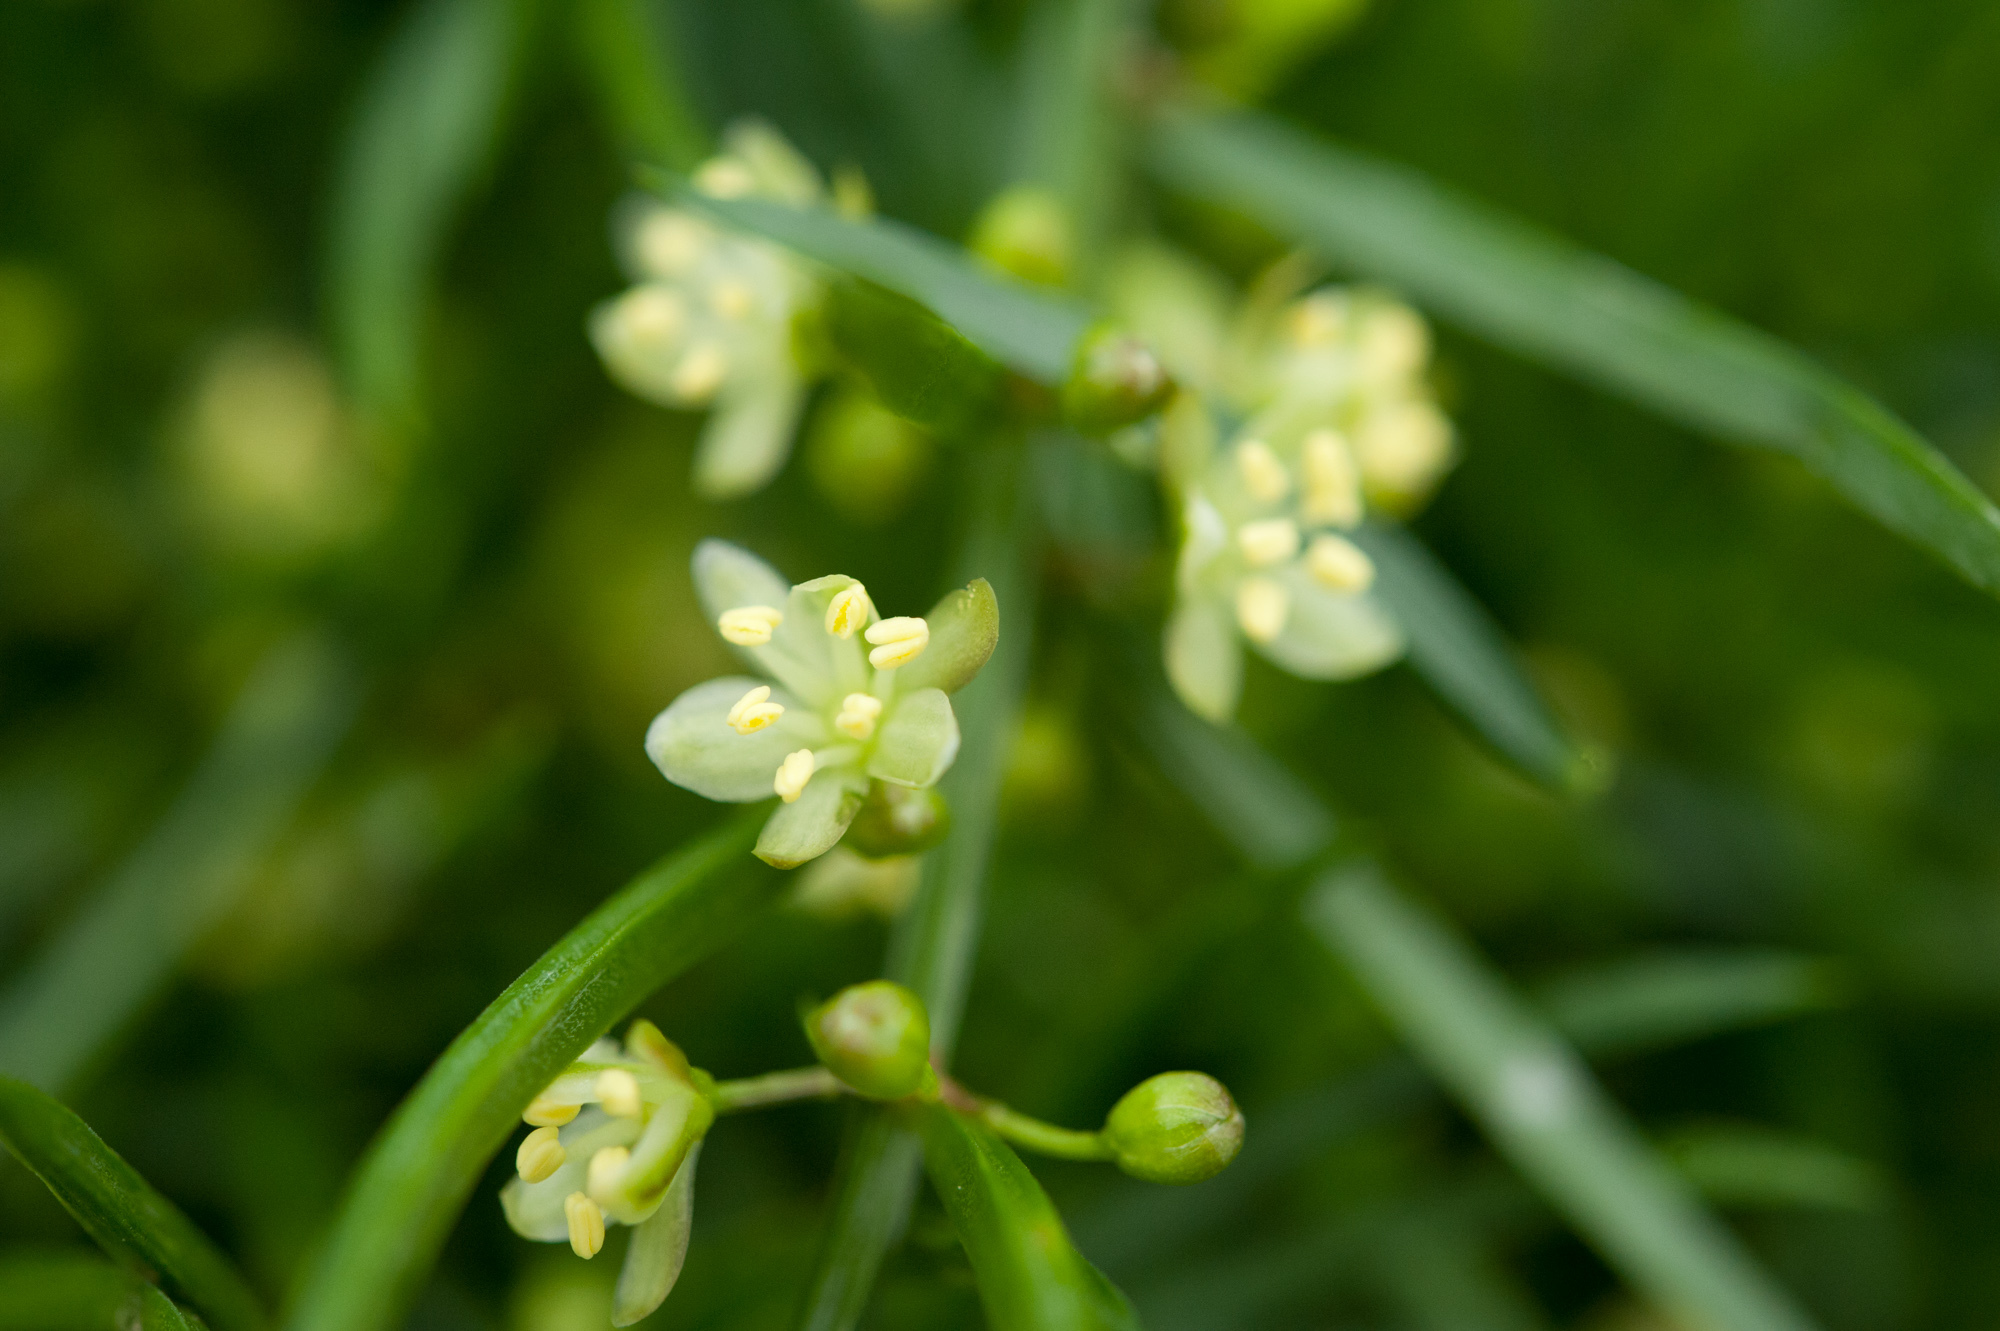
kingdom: Plantae
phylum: Tracheophyta
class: Liliopsida
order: Asparagales
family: Asparagaceae
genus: Asparagus
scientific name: Asparagus cochinchinensis
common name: Chinese asparagus
